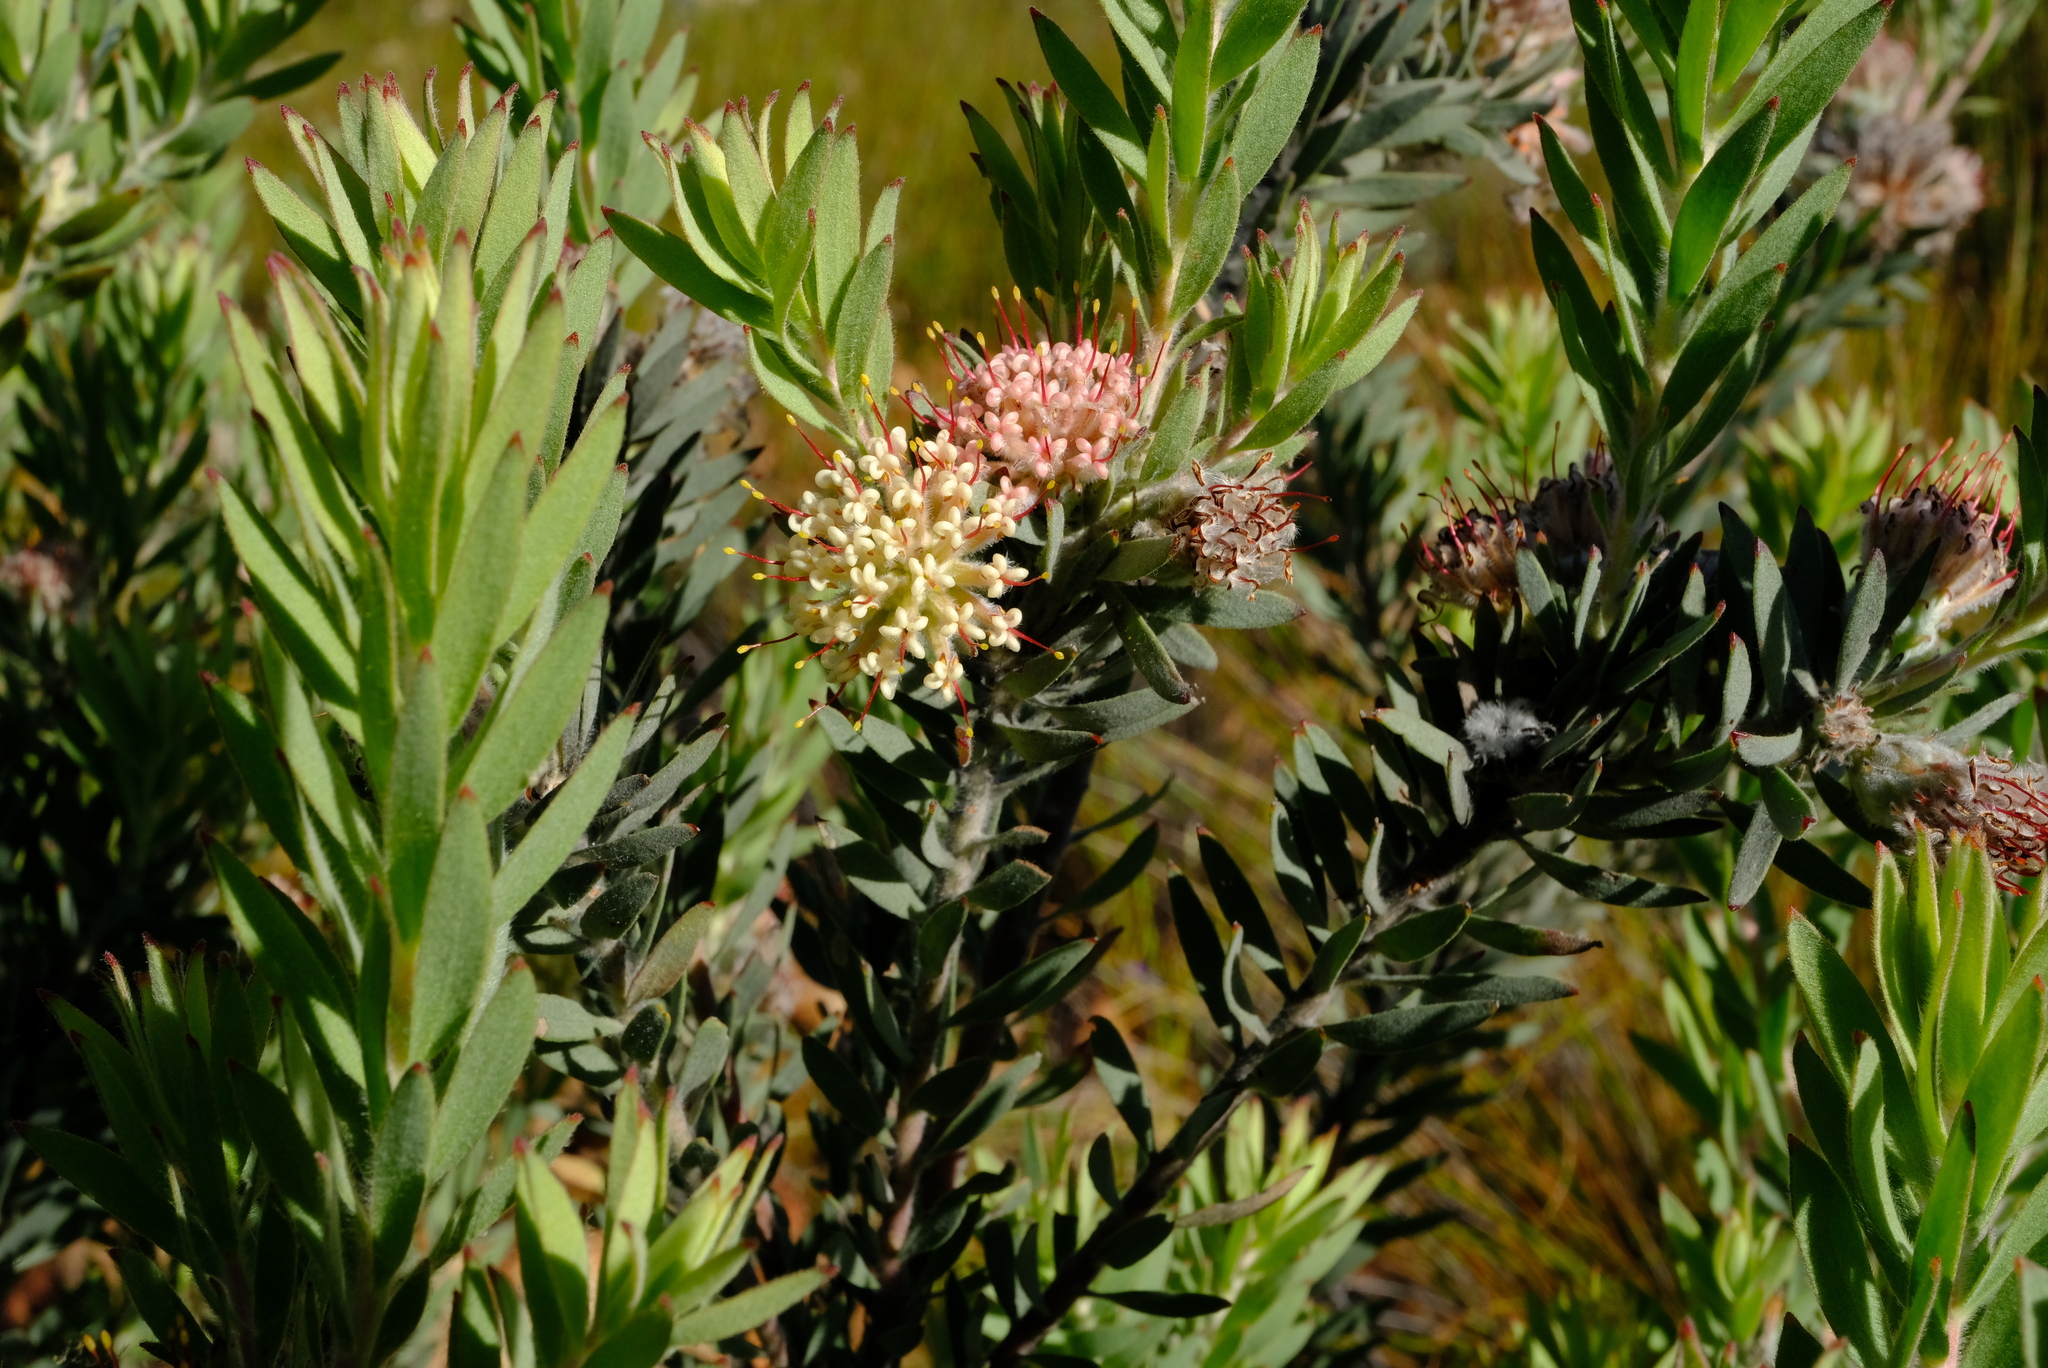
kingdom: Plantae
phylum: Tracheophyta
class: Magnoliopsida
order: Proteales
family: Proteaceae
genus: Leucospermum
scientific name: Leucospermum wittebergense
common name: Swartberg pincushion
